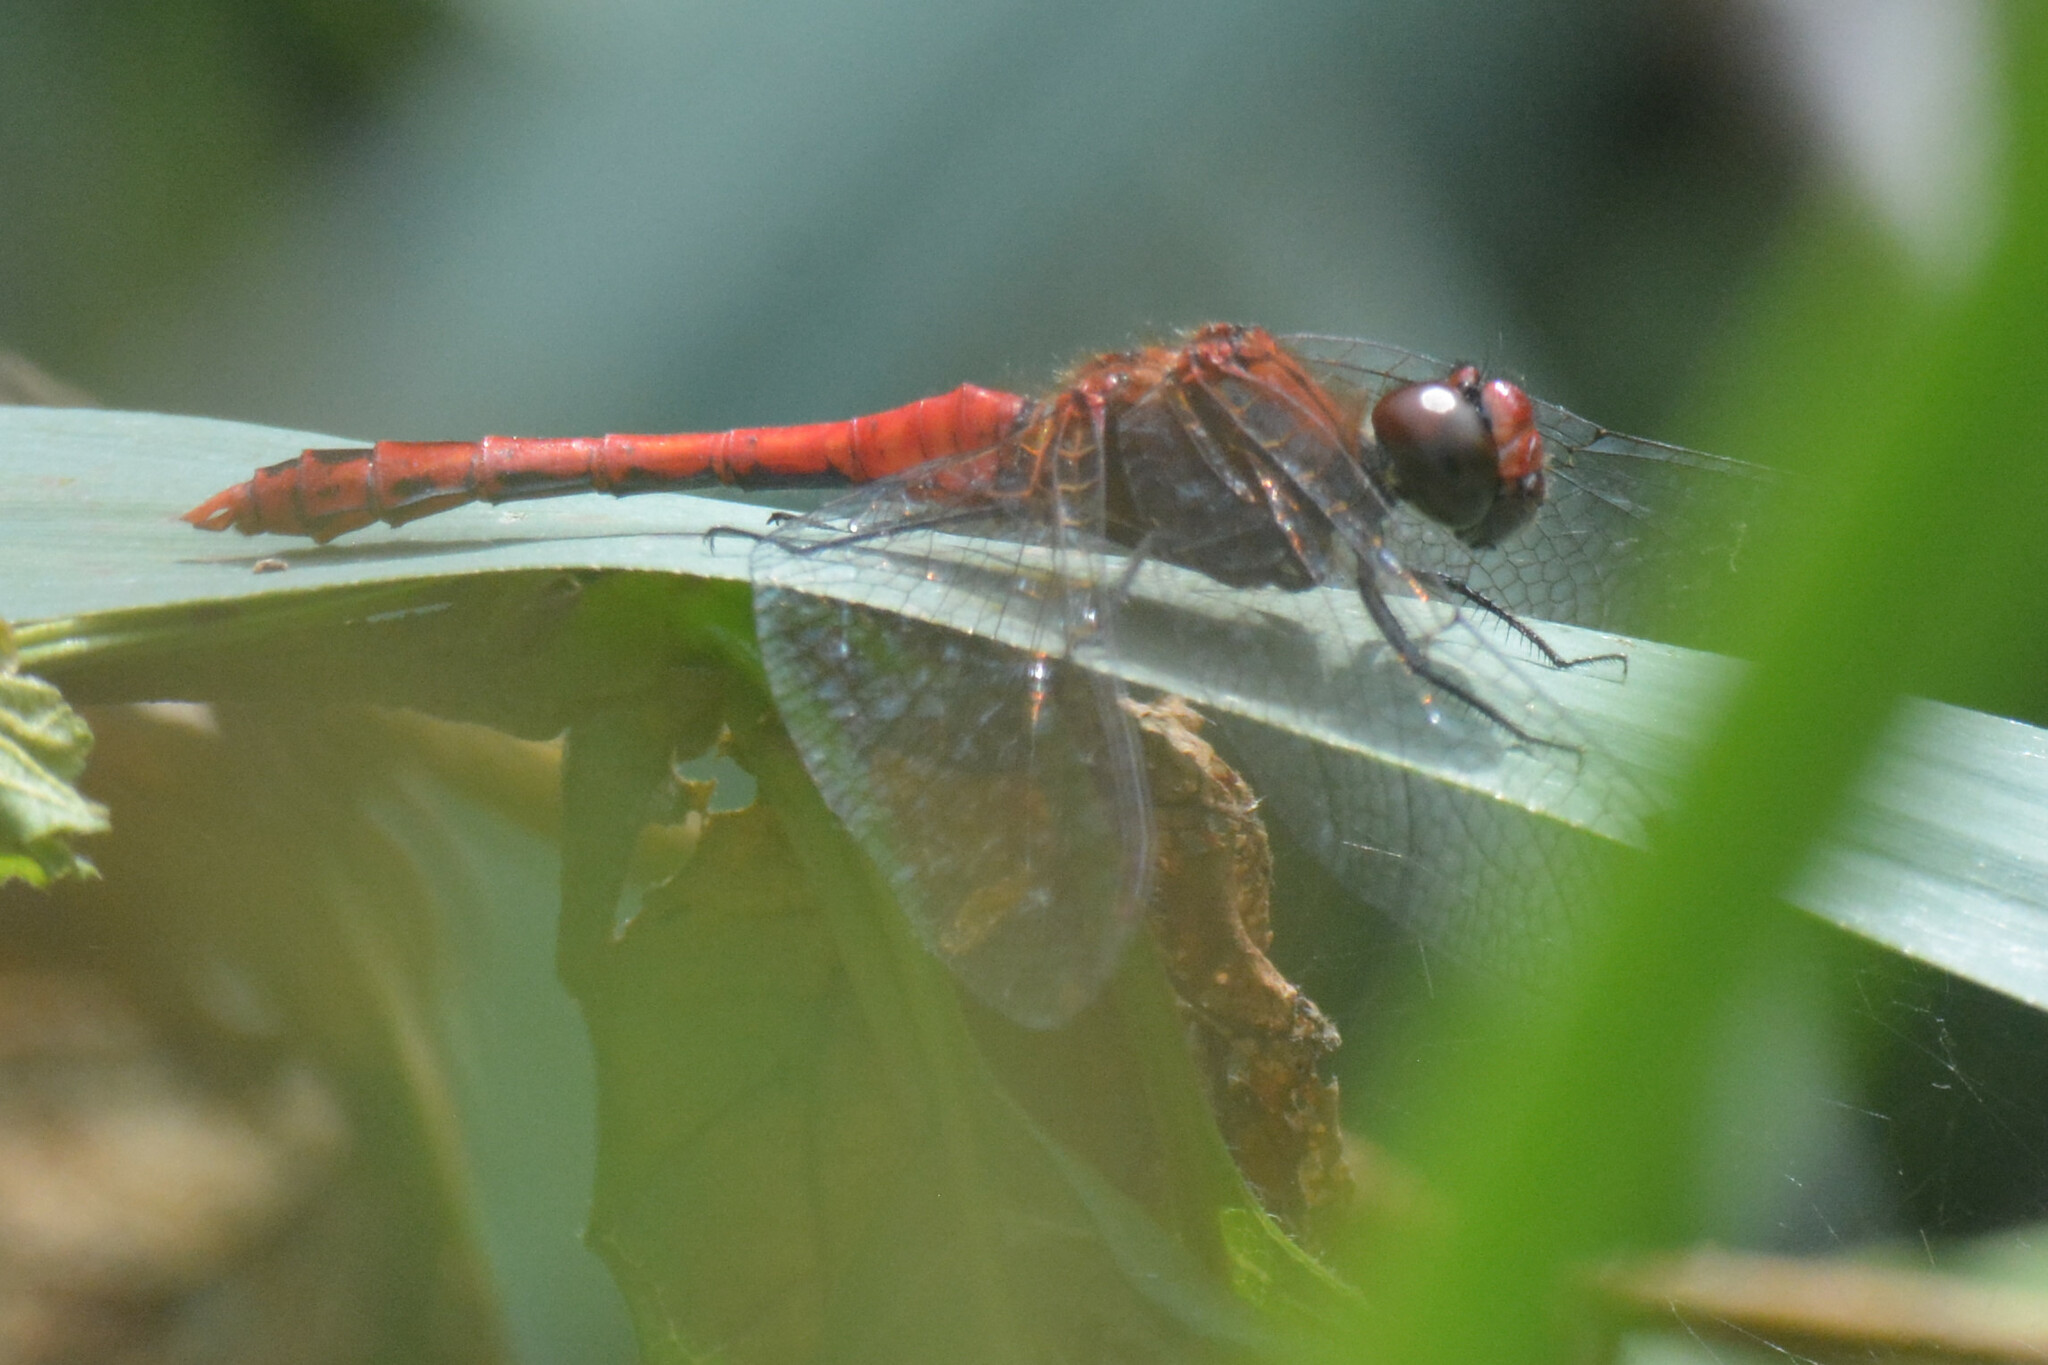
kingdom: Animalia
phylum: Arthropoda
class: Insecta
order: Odonata
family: Libellulidae
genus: Sympetrum
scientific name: Sympetrum sanguineum
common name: Ruddy darter
